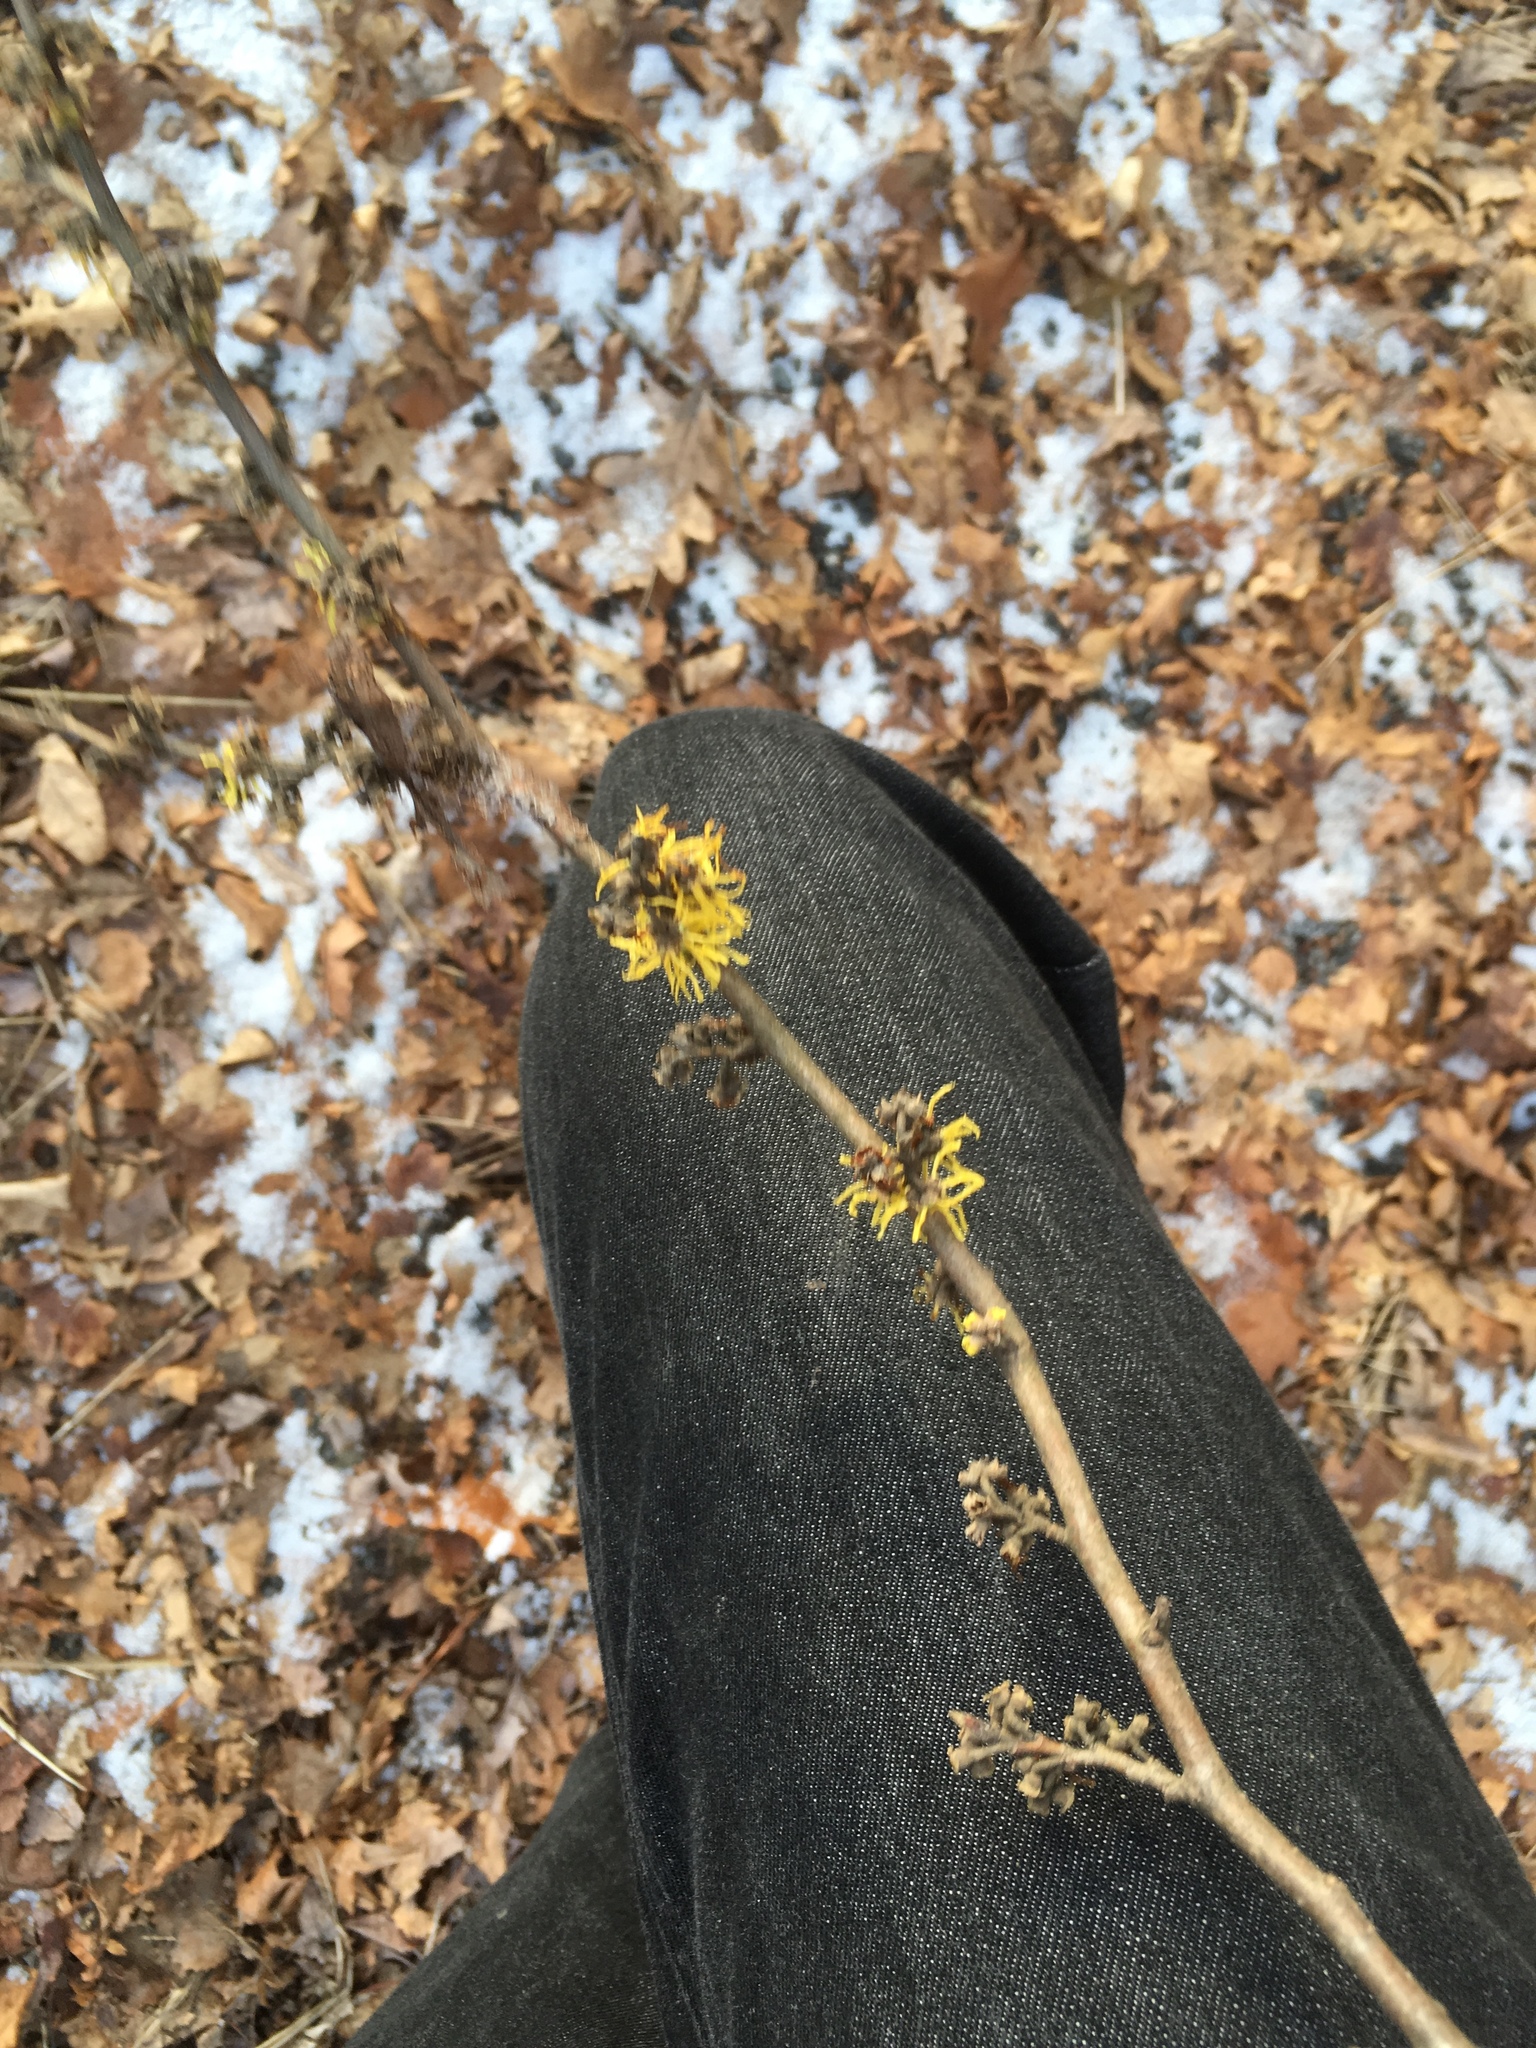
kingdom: Plantae
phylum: Tracheophyta
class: Magnoliopsida
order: Saxifragales
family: Hamamelidaceae
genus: Hamamelis
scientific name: Hamamelis virginiana
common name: Witch-hazel
